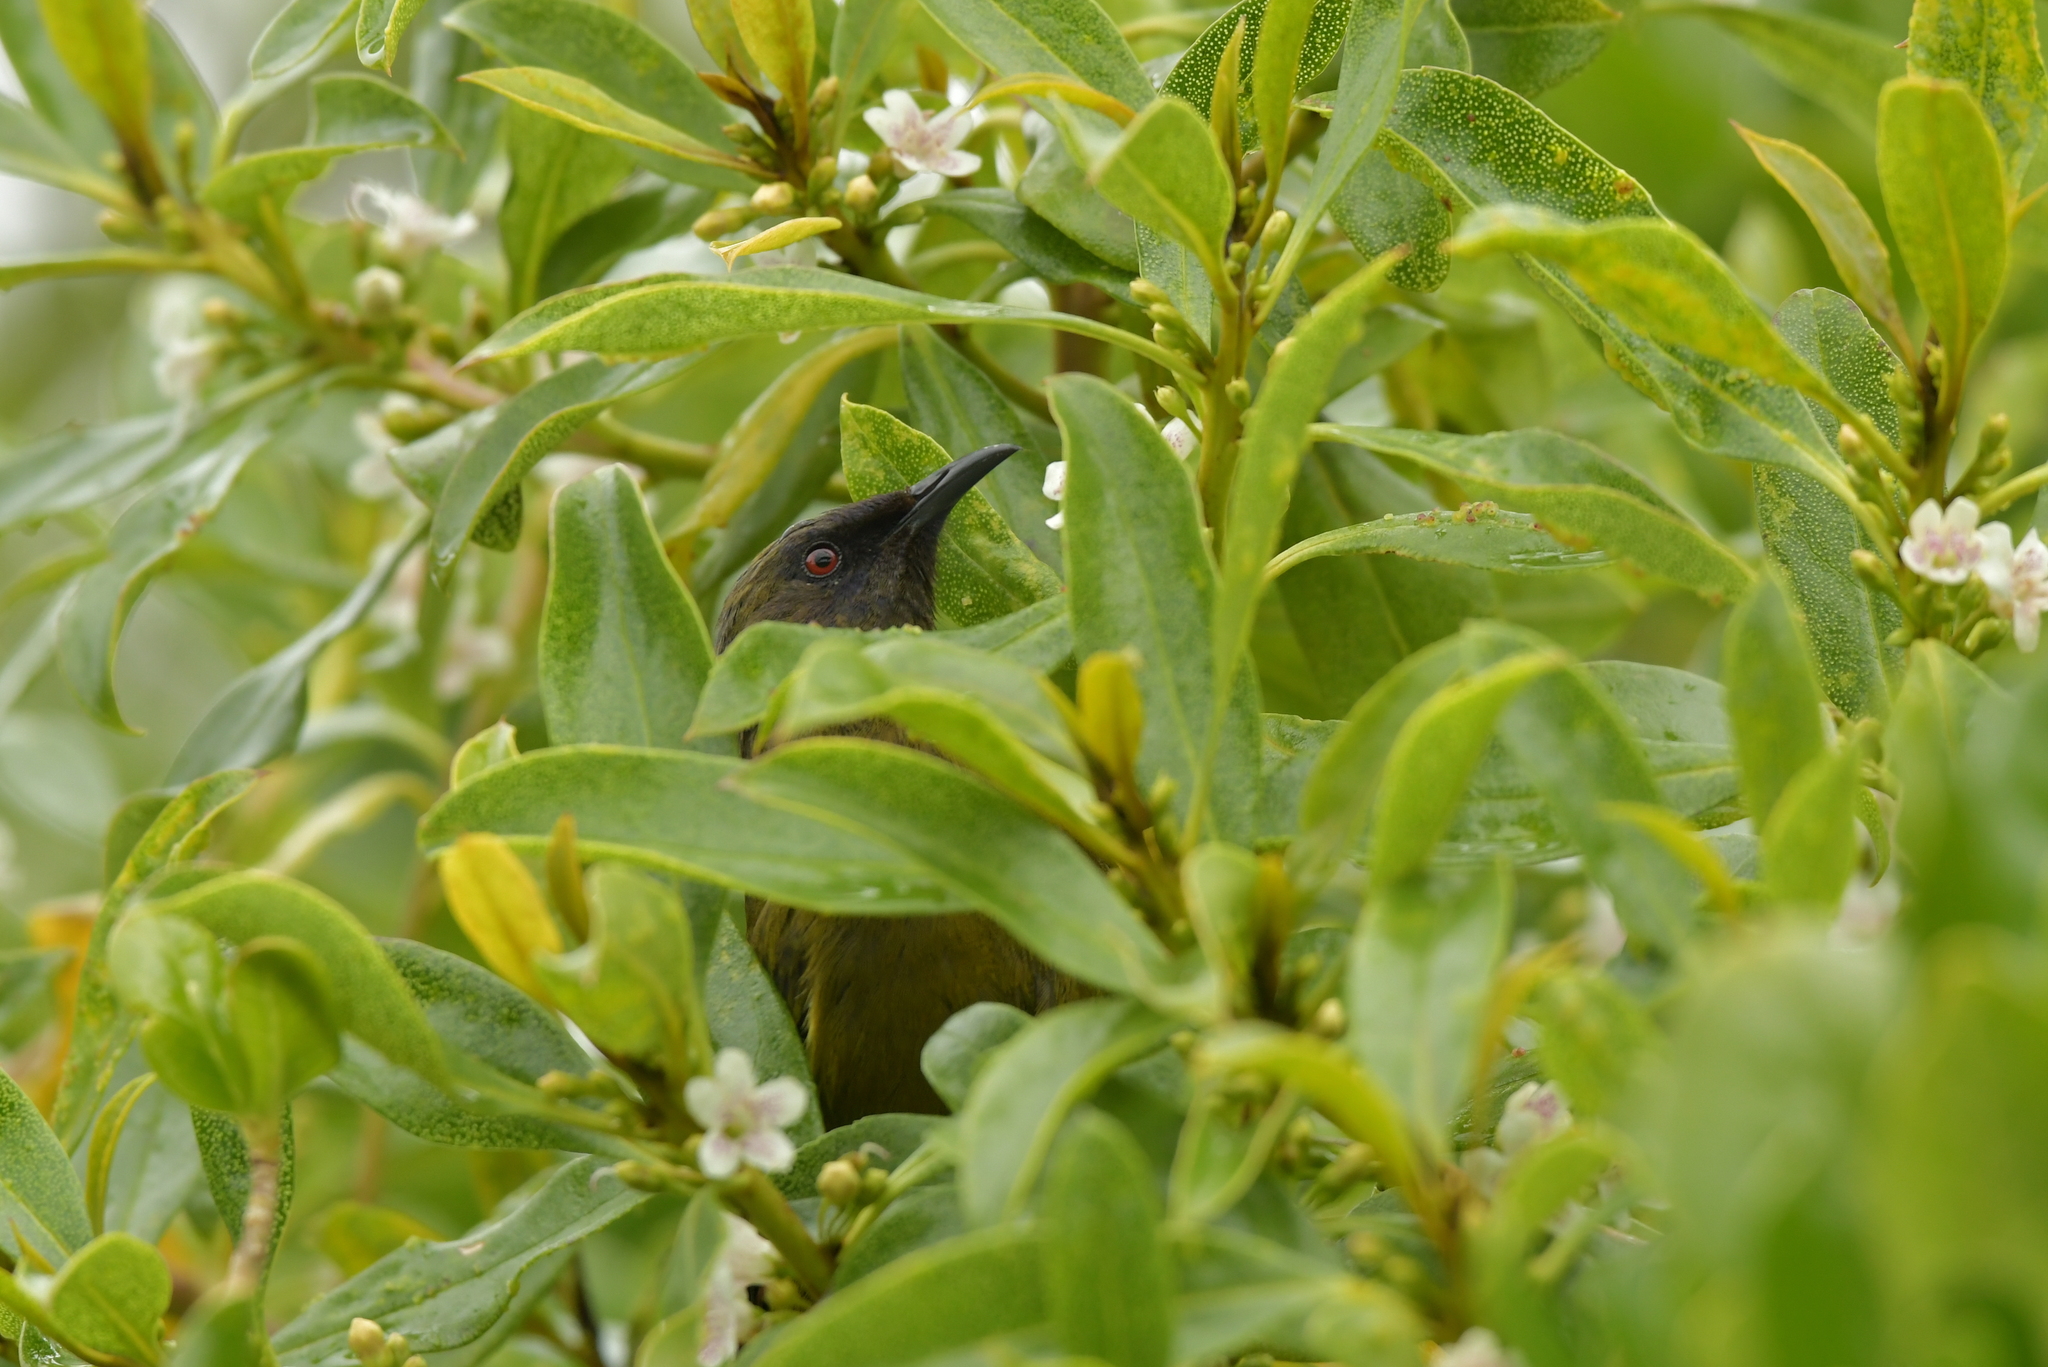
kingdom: Animalia
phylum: Chordata
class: Aves
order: Passeriformes
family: Meliphagidae
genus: Anthornis
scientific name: Anthornis melanura
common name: New zealand bellbird
